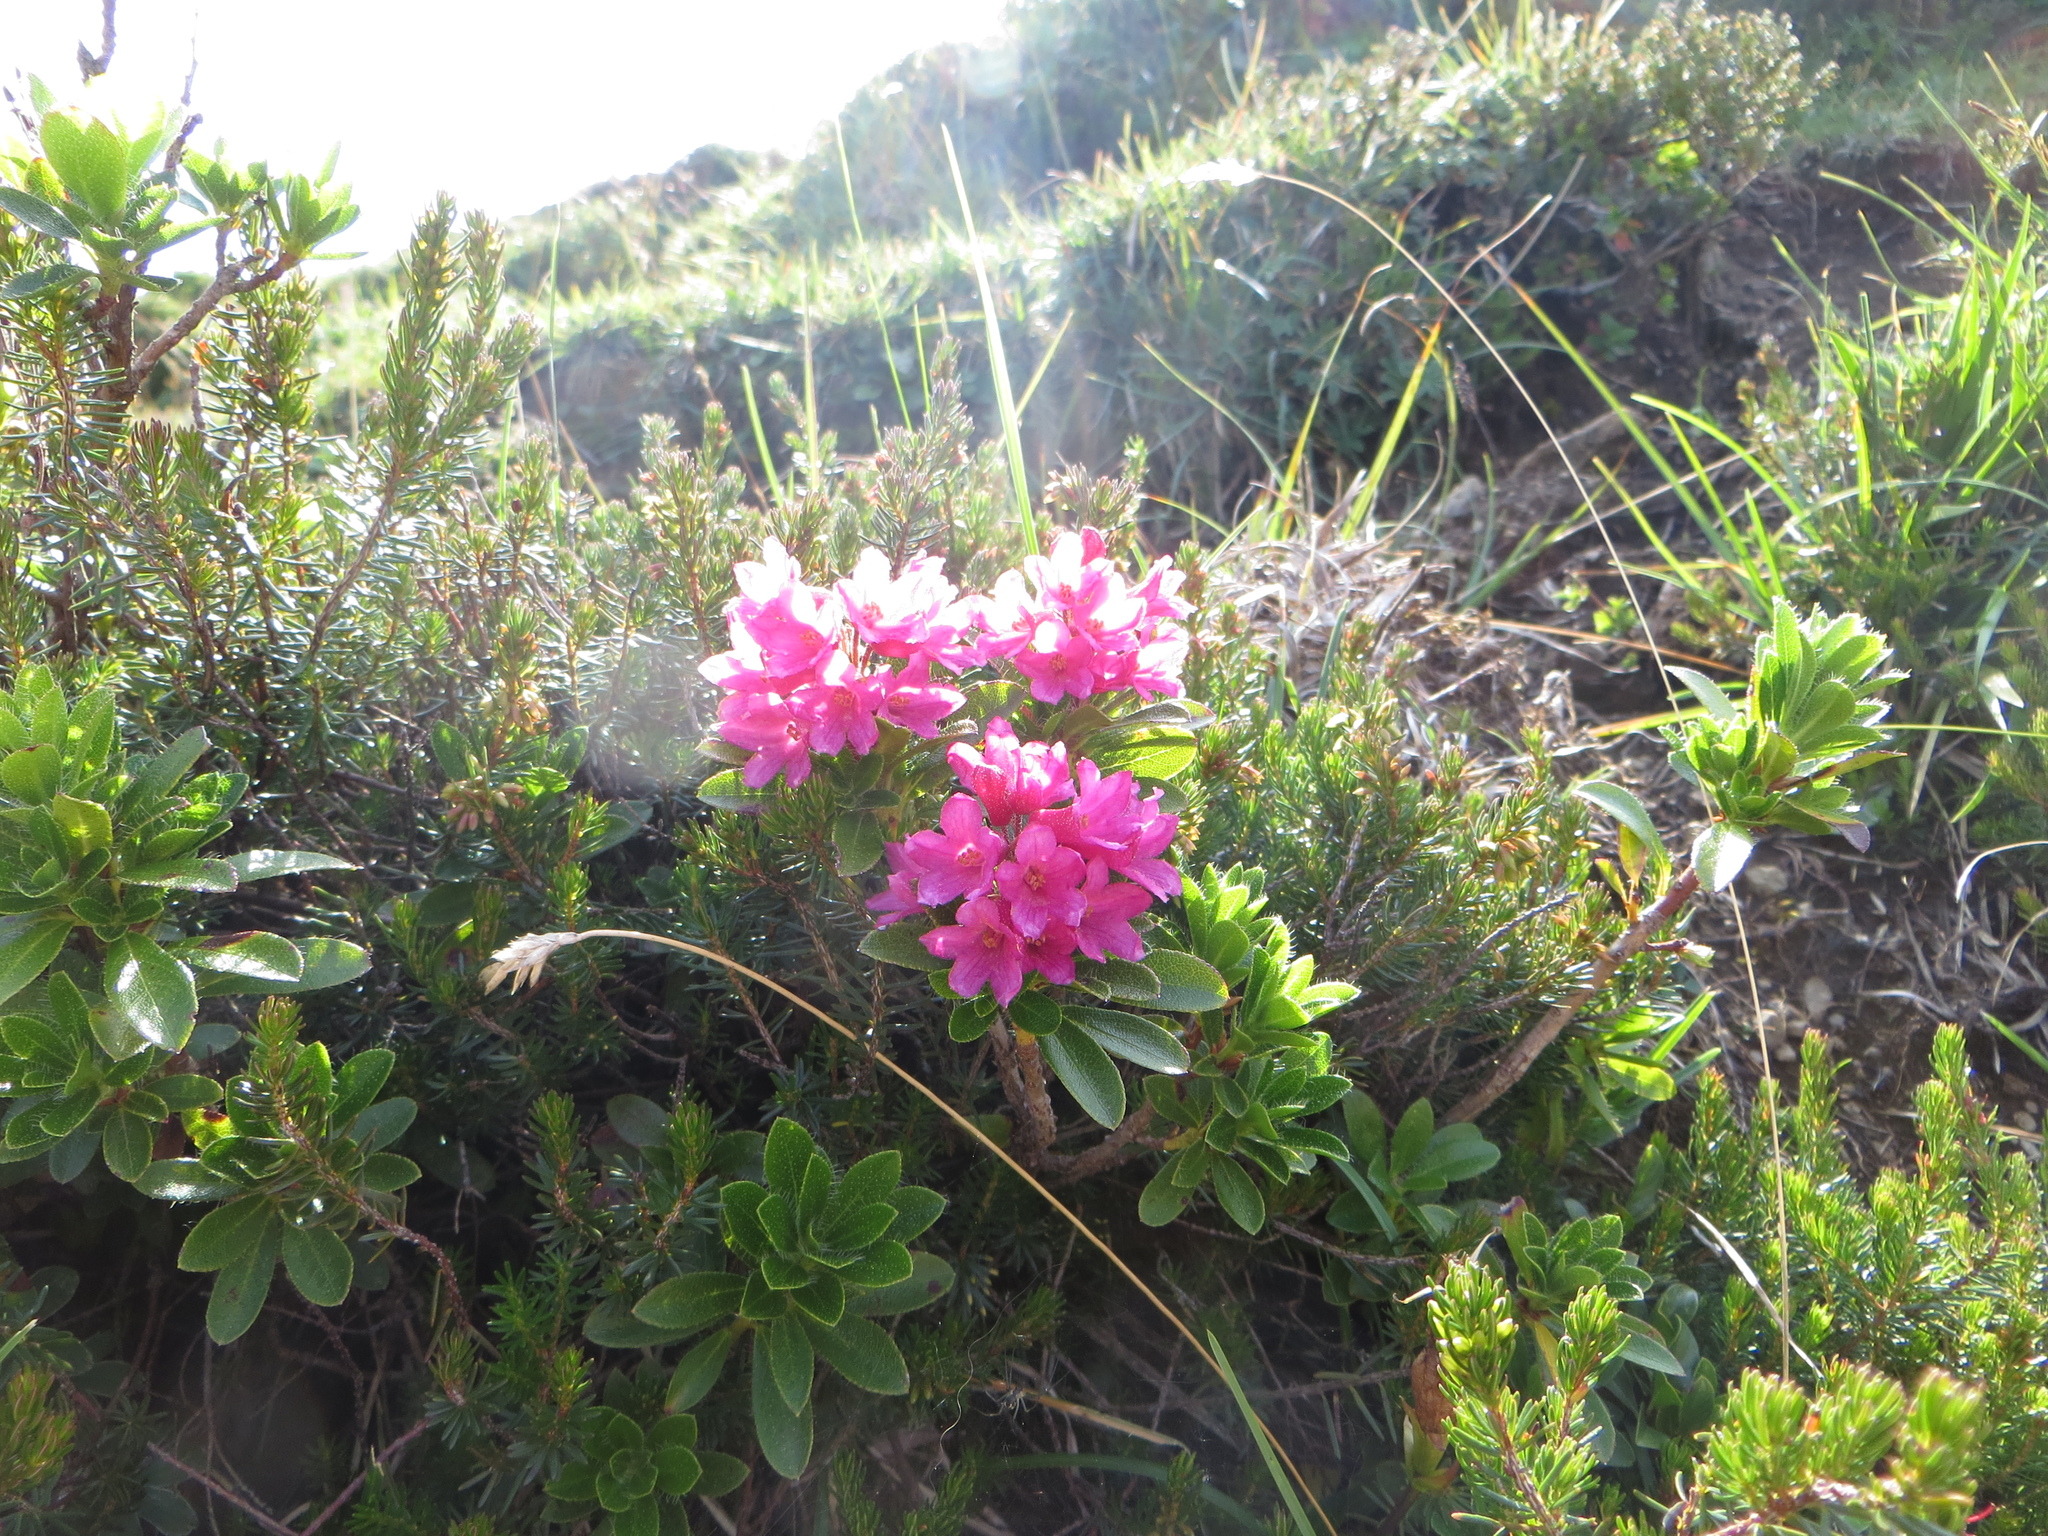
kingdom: Plantae
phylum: Tracheophyta
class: Magnoliopsida
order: Ericales
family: Ericaceae
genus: Rhododendron
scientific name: Rhododendron hirsutum
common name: Hairy alpenrose
